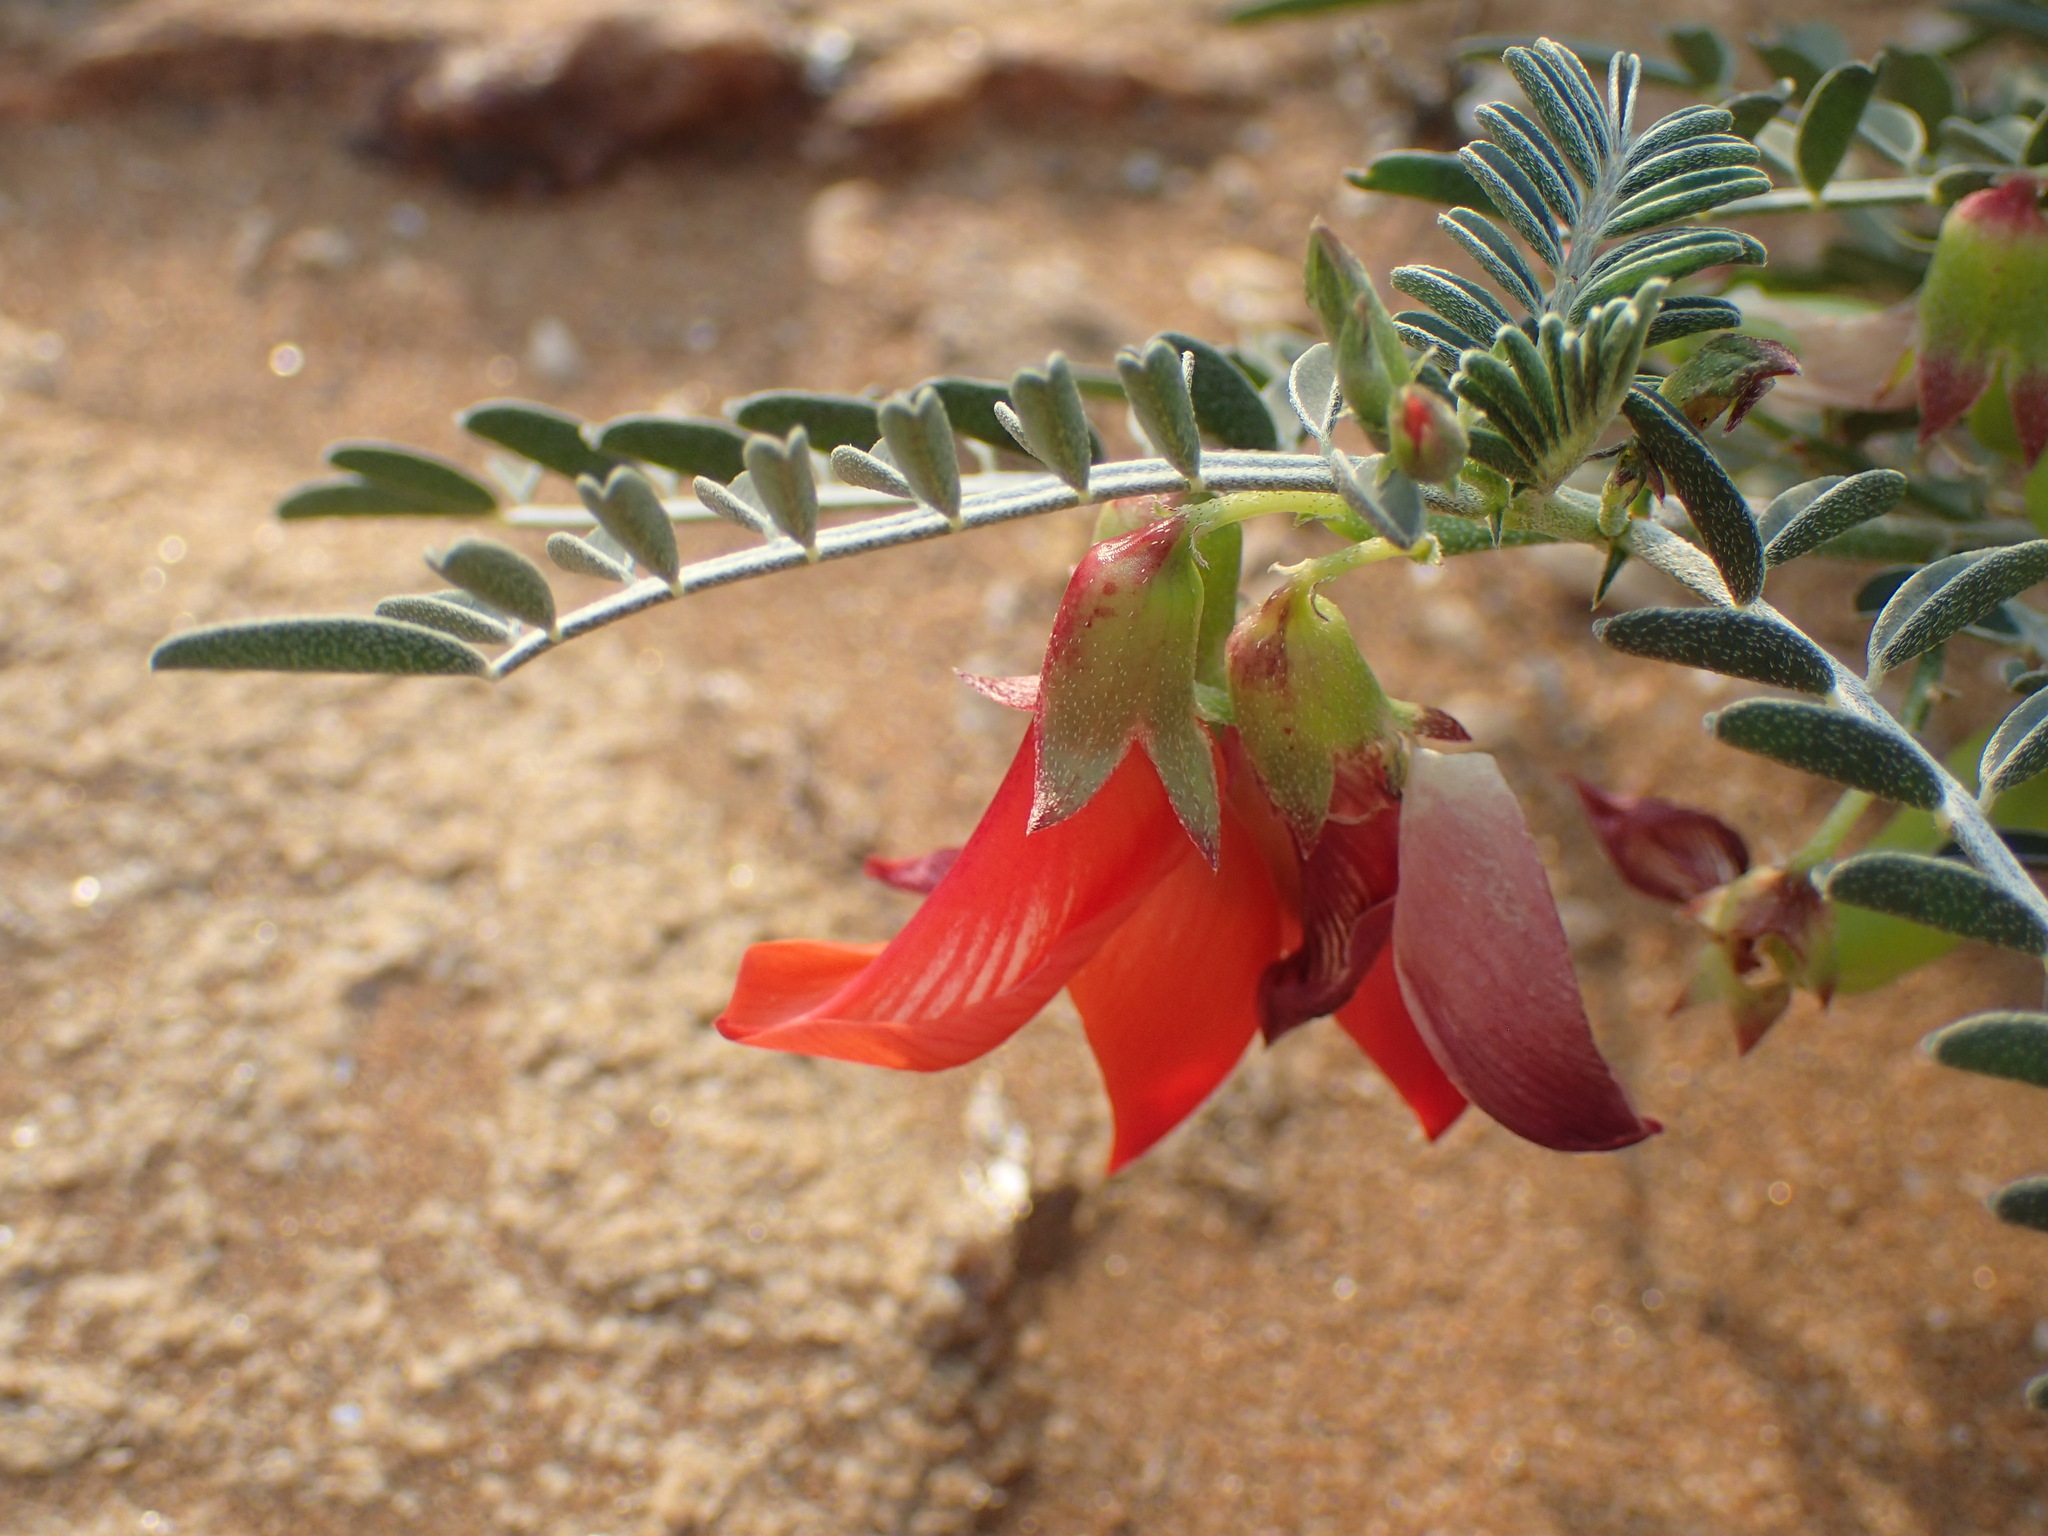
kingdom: Plantae
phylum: Tracheophyta
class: Magnoliopsida
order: Fabales
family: Fabaceae
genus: Lessertia
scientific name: Lessertia frutescens
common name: Balloon-pea
